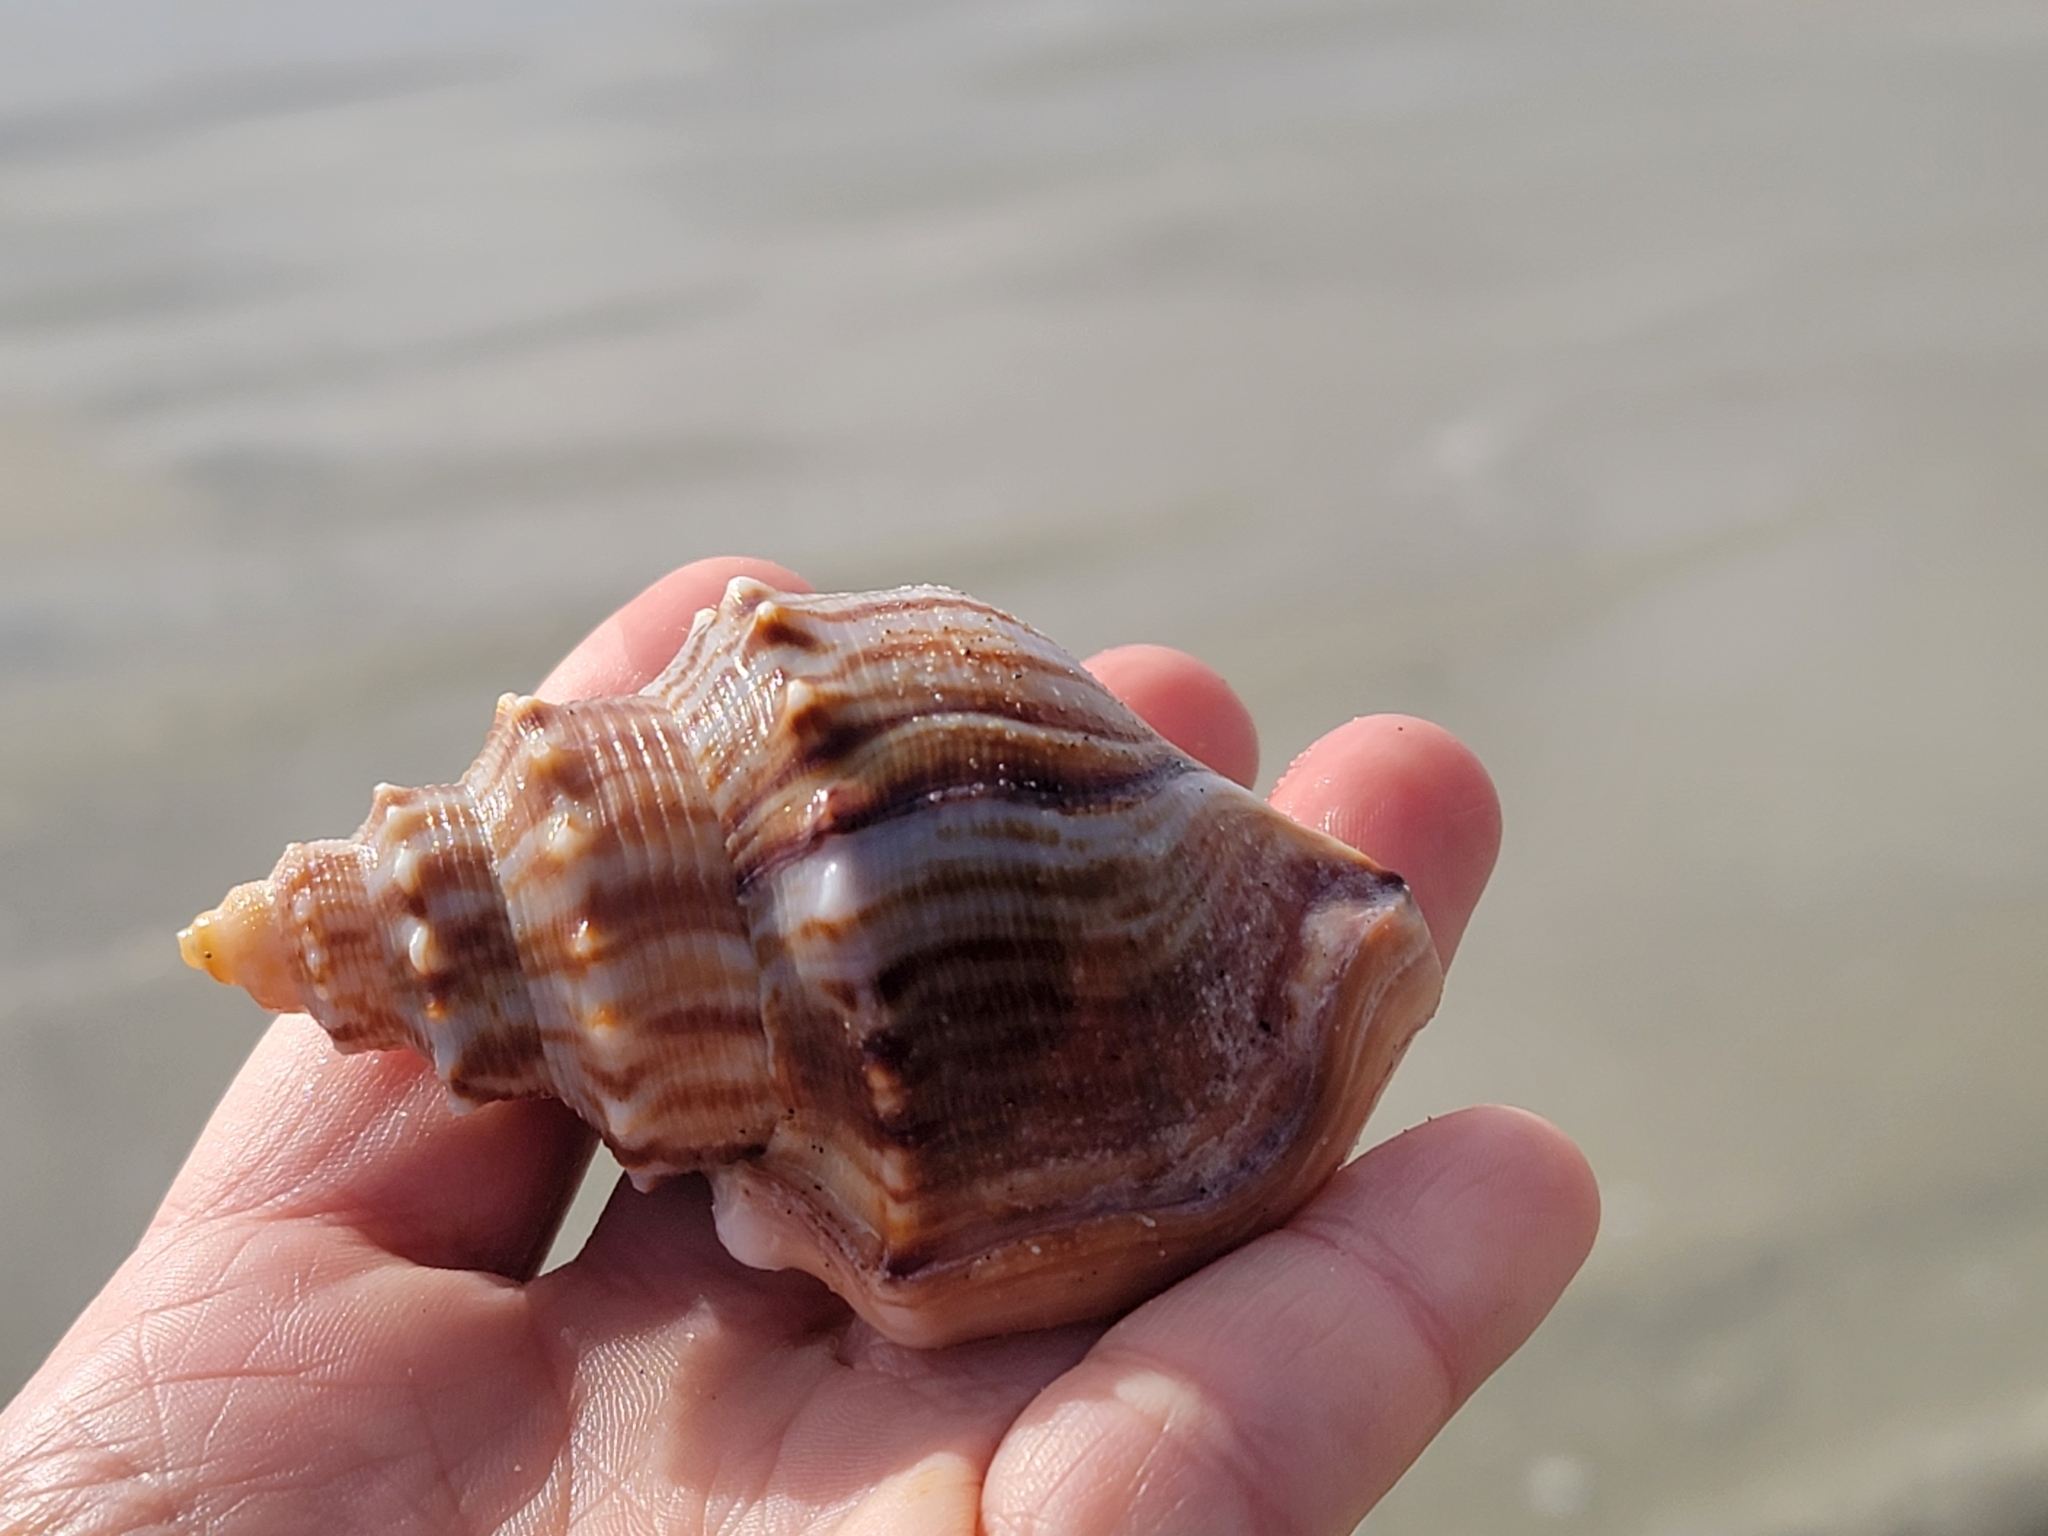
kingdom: Animalia
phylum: Mollusca
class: Gastropoda
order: Littorinimorpha
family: Struthiolariidae
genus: Struthiolaria
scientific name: Struthiolaria papulosa
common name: Large ostrich foot
